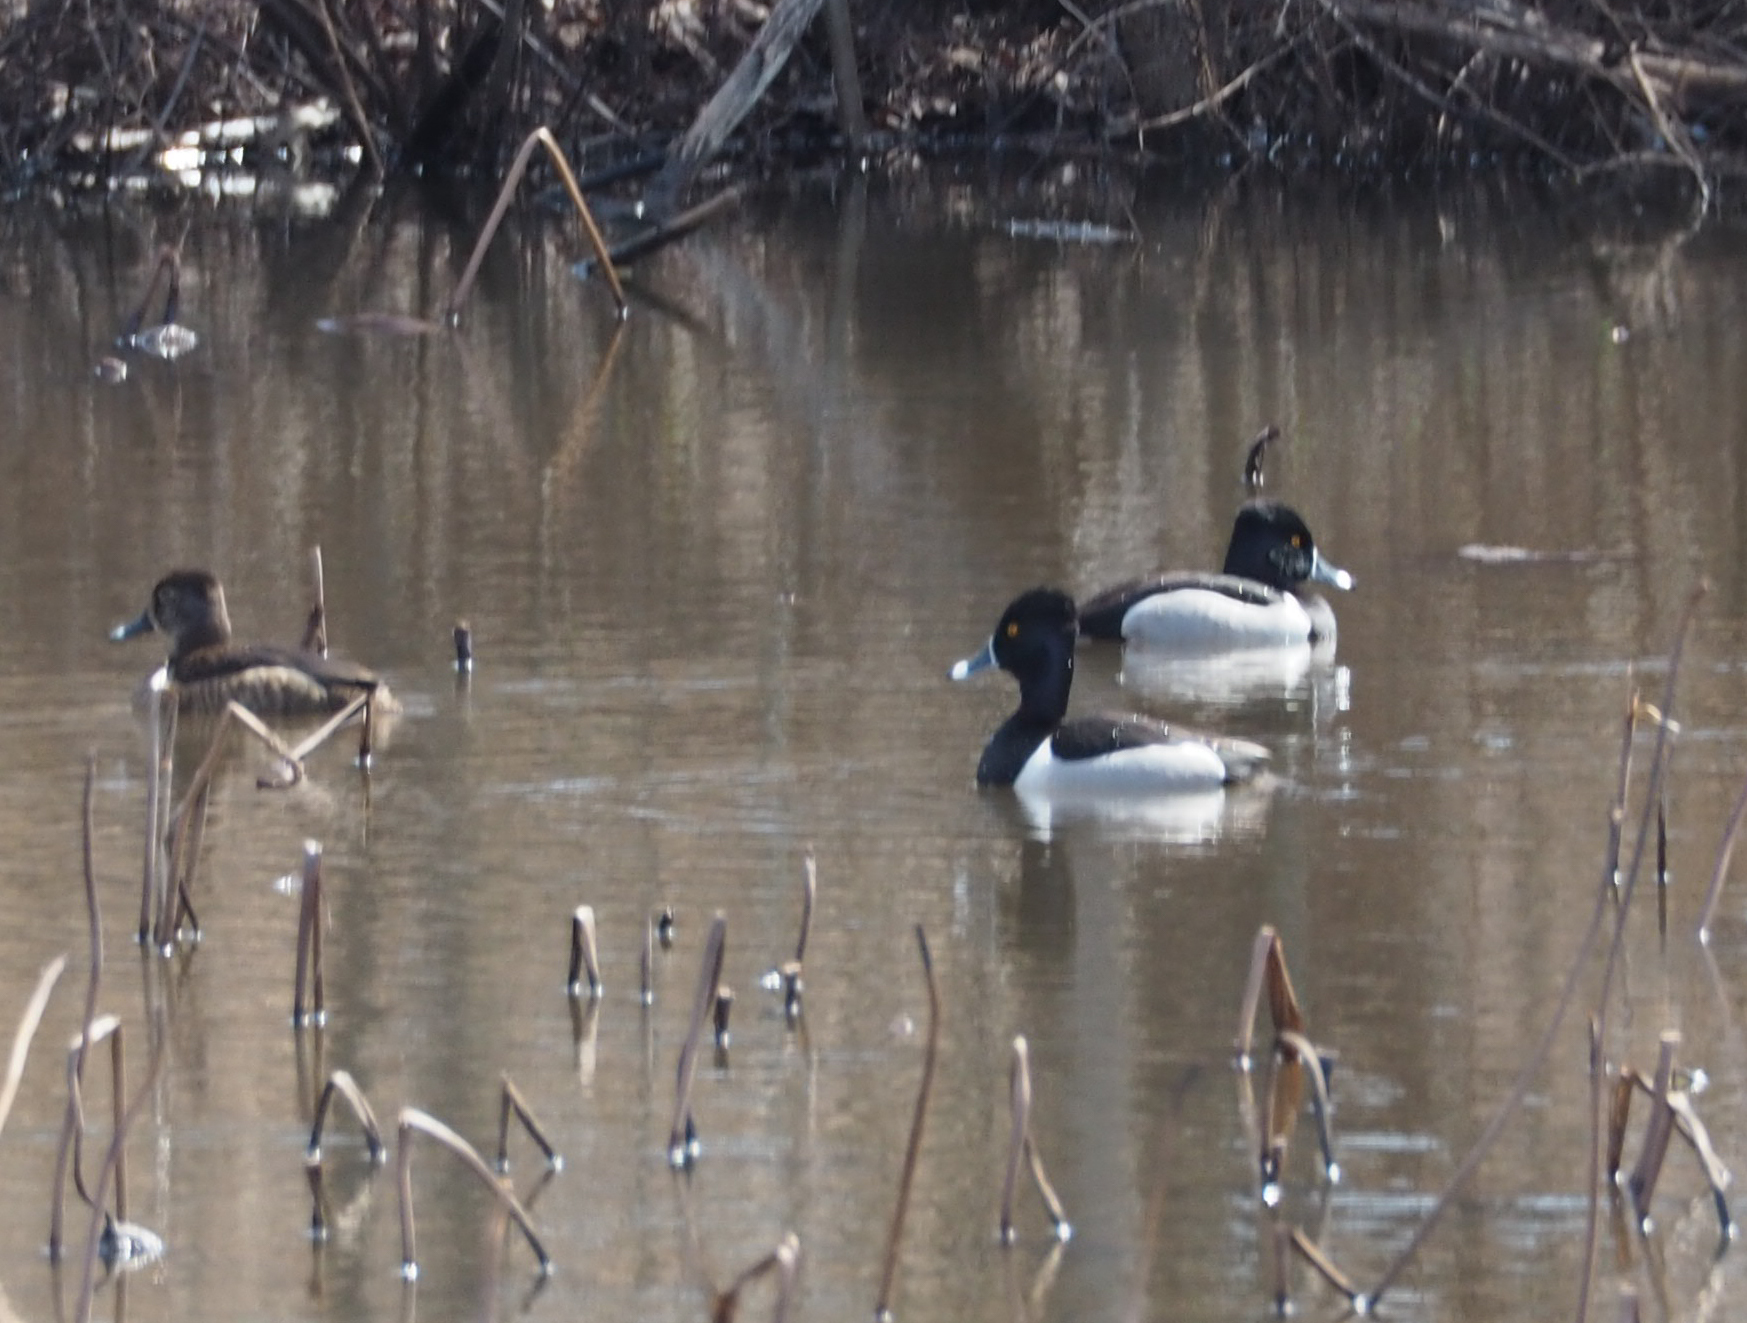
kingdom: Animalia
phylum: Chordata
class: Aves
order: Anseriformes
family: Anatidae
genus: Aythya
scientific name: Aythya collaris
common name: Ring-necked duck
